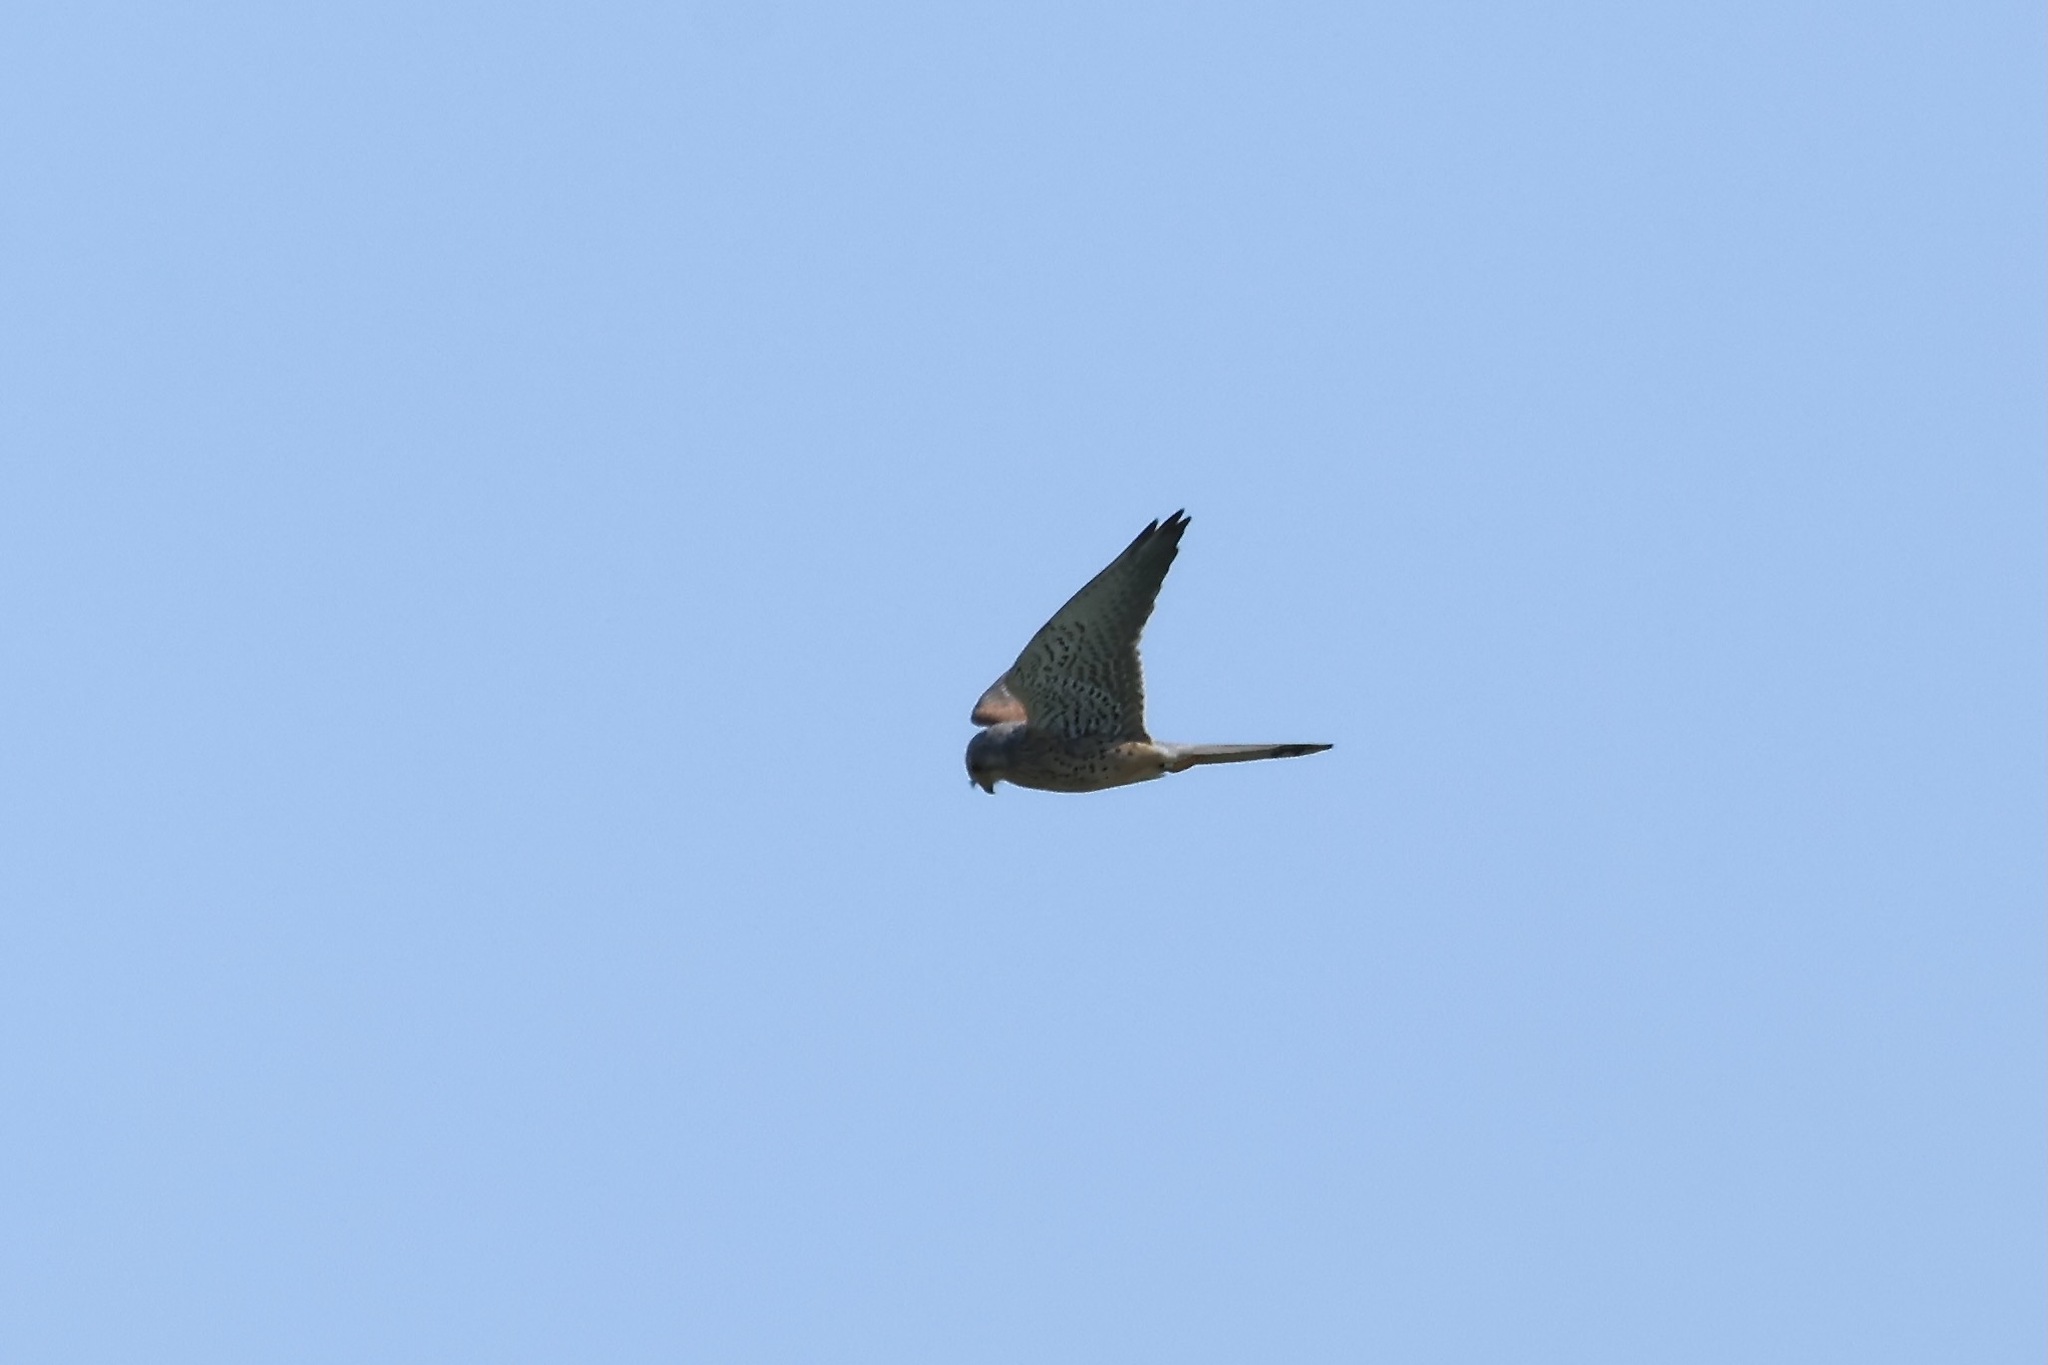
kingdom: Animalia
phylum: Chordata
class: Aves
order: Falconiformes
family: Falconidae
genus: Falco
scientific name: Falco tinnunculus
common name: Common kestrel
